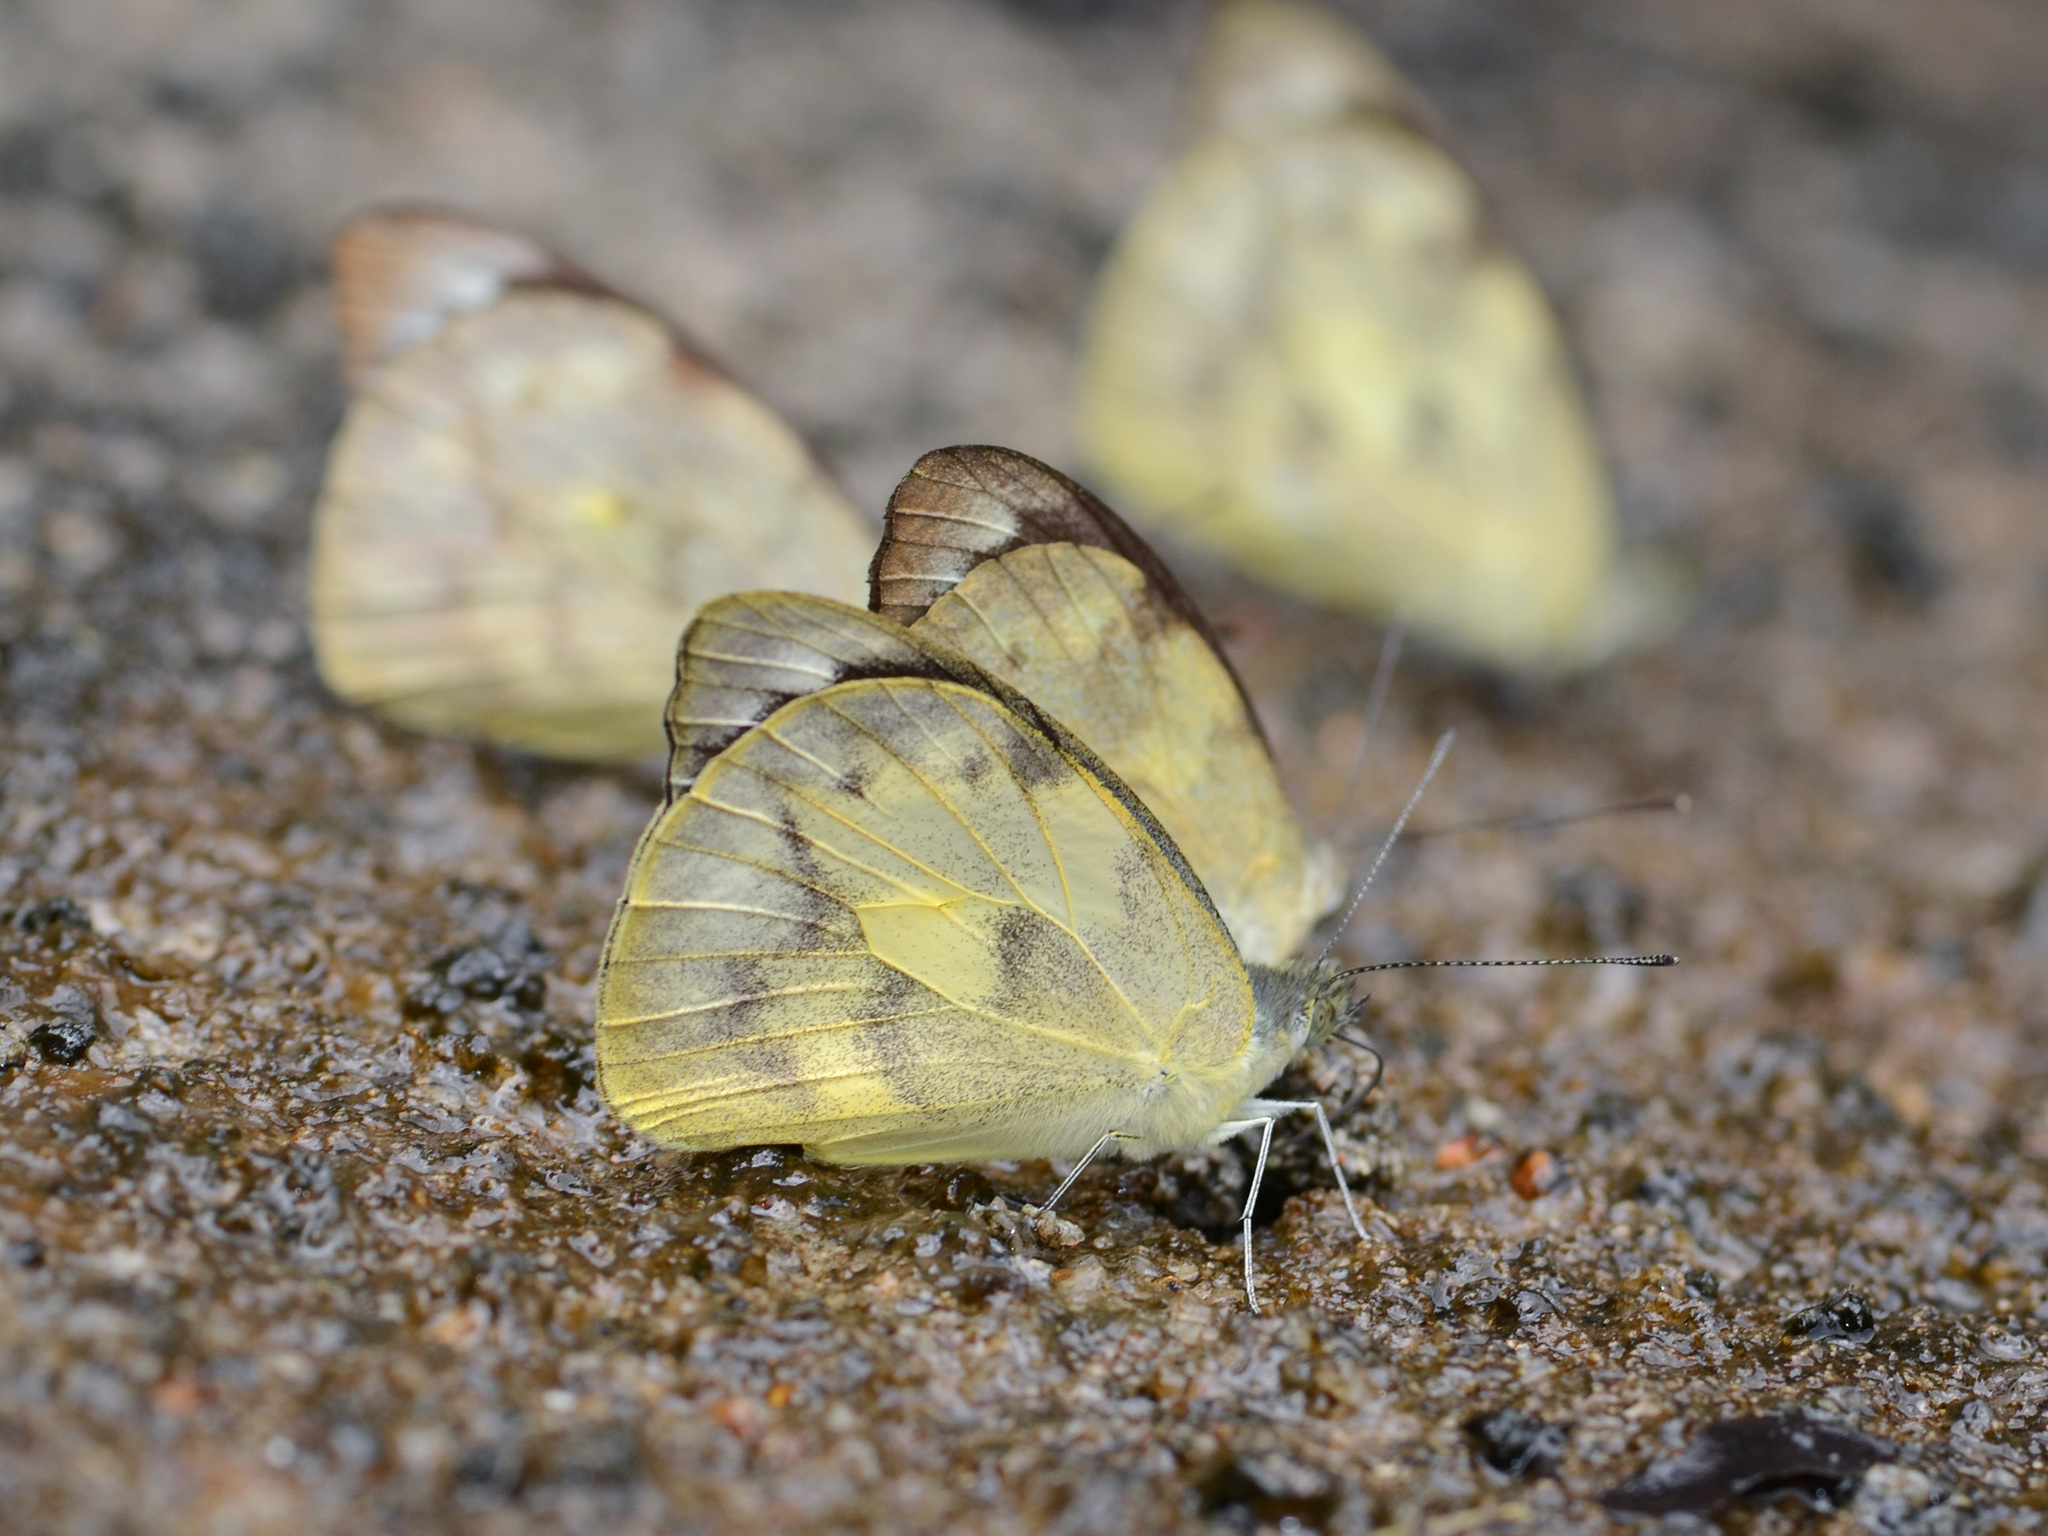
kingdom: Animalia
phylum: Arthropoda
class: Insecta
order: Lepidoptera
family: Pieridae
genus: Appias
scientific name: Appias pandione
